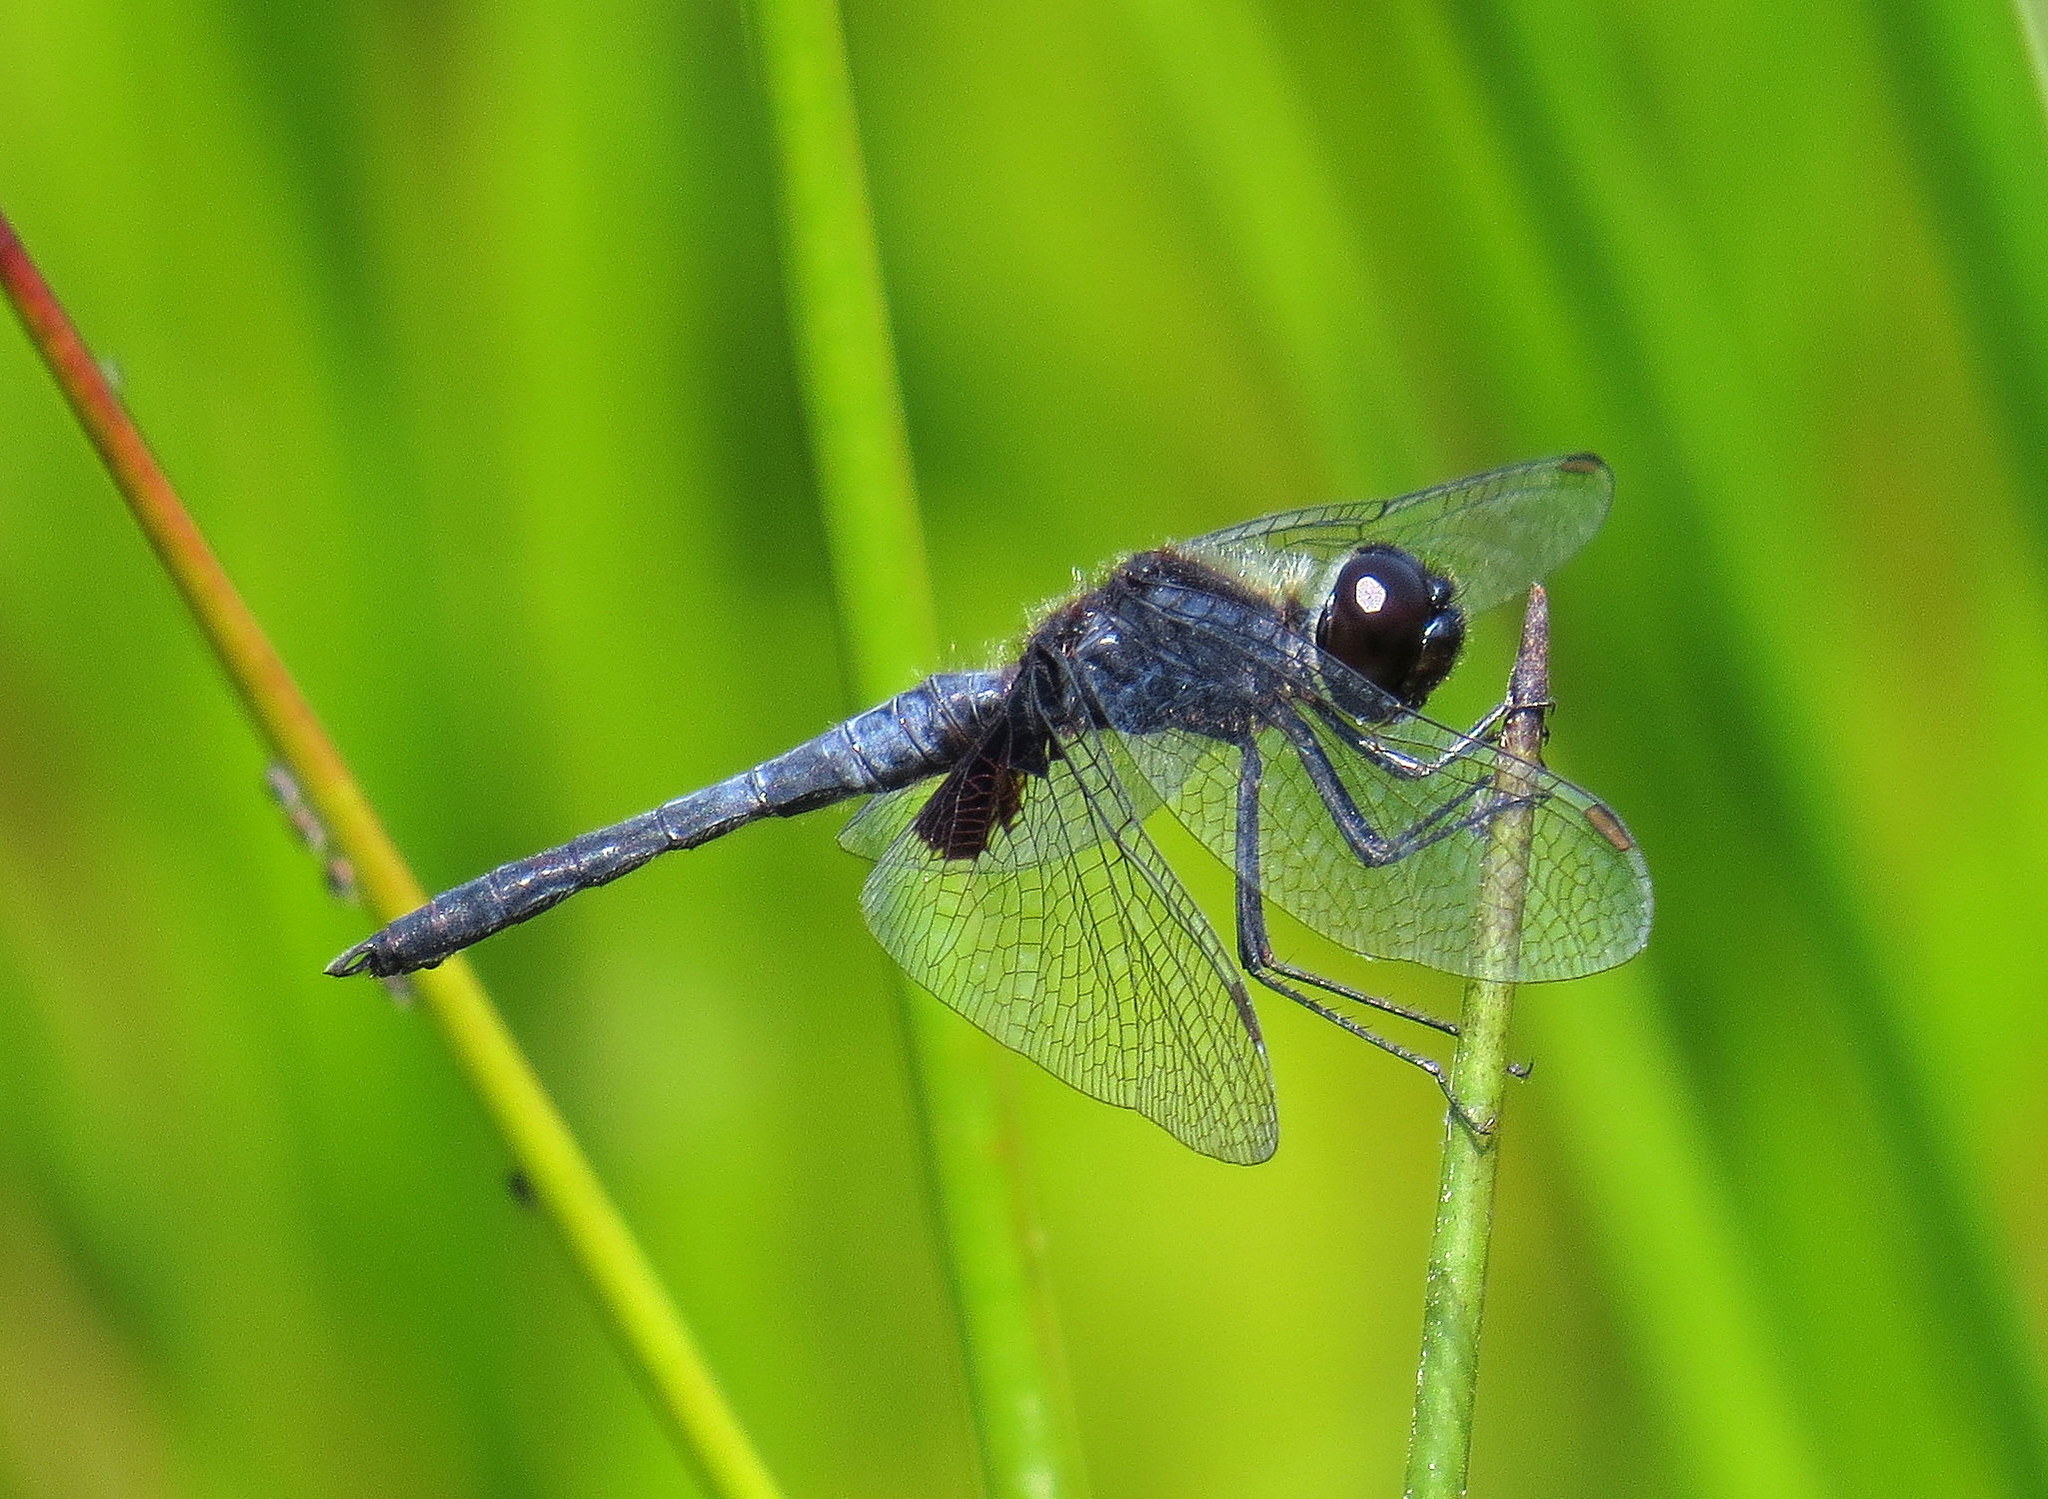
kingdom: Animalia
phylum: Arthropoda
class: Insecta
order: Odonata
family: Libellulidae
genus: Celithemis
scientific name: Celithemis martha
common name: Martha's pennant
